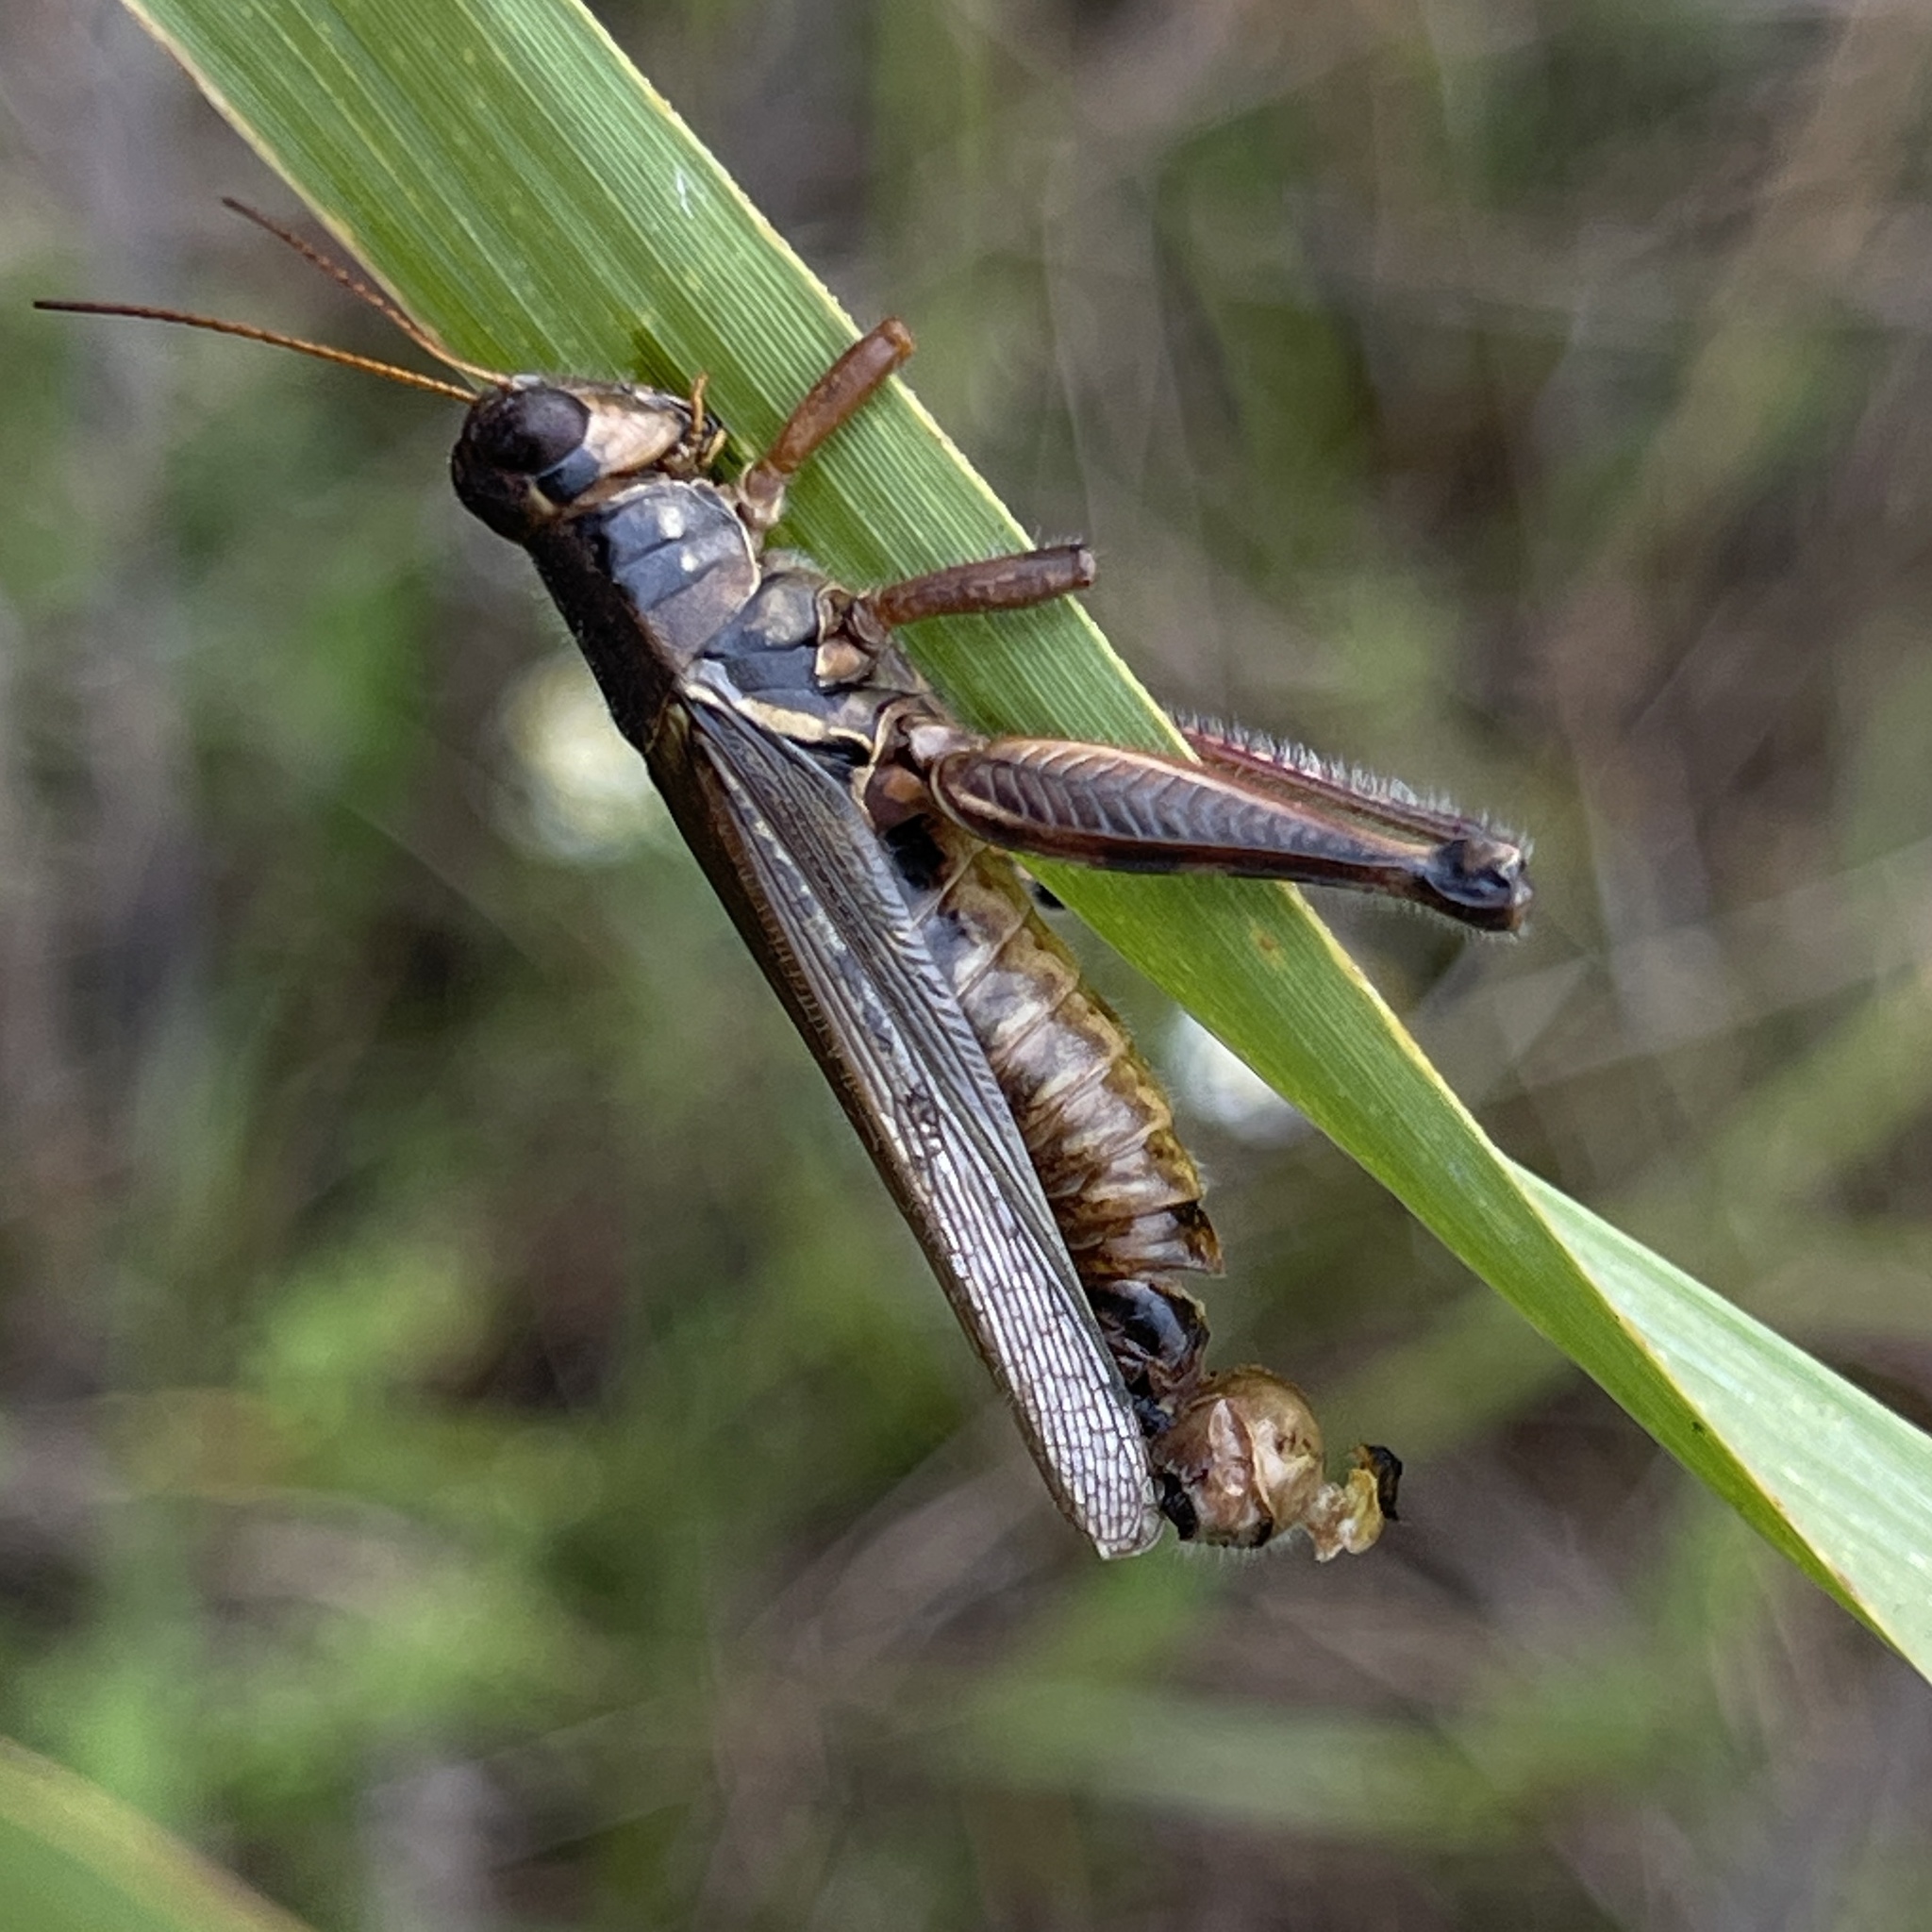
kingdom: Fungi
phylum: Entomophthoromycota
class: Entomophthoromycetes
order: Entomophthorales
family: Entomophthoraceae
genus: Entomophaga
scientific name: Entomophaga grylli
